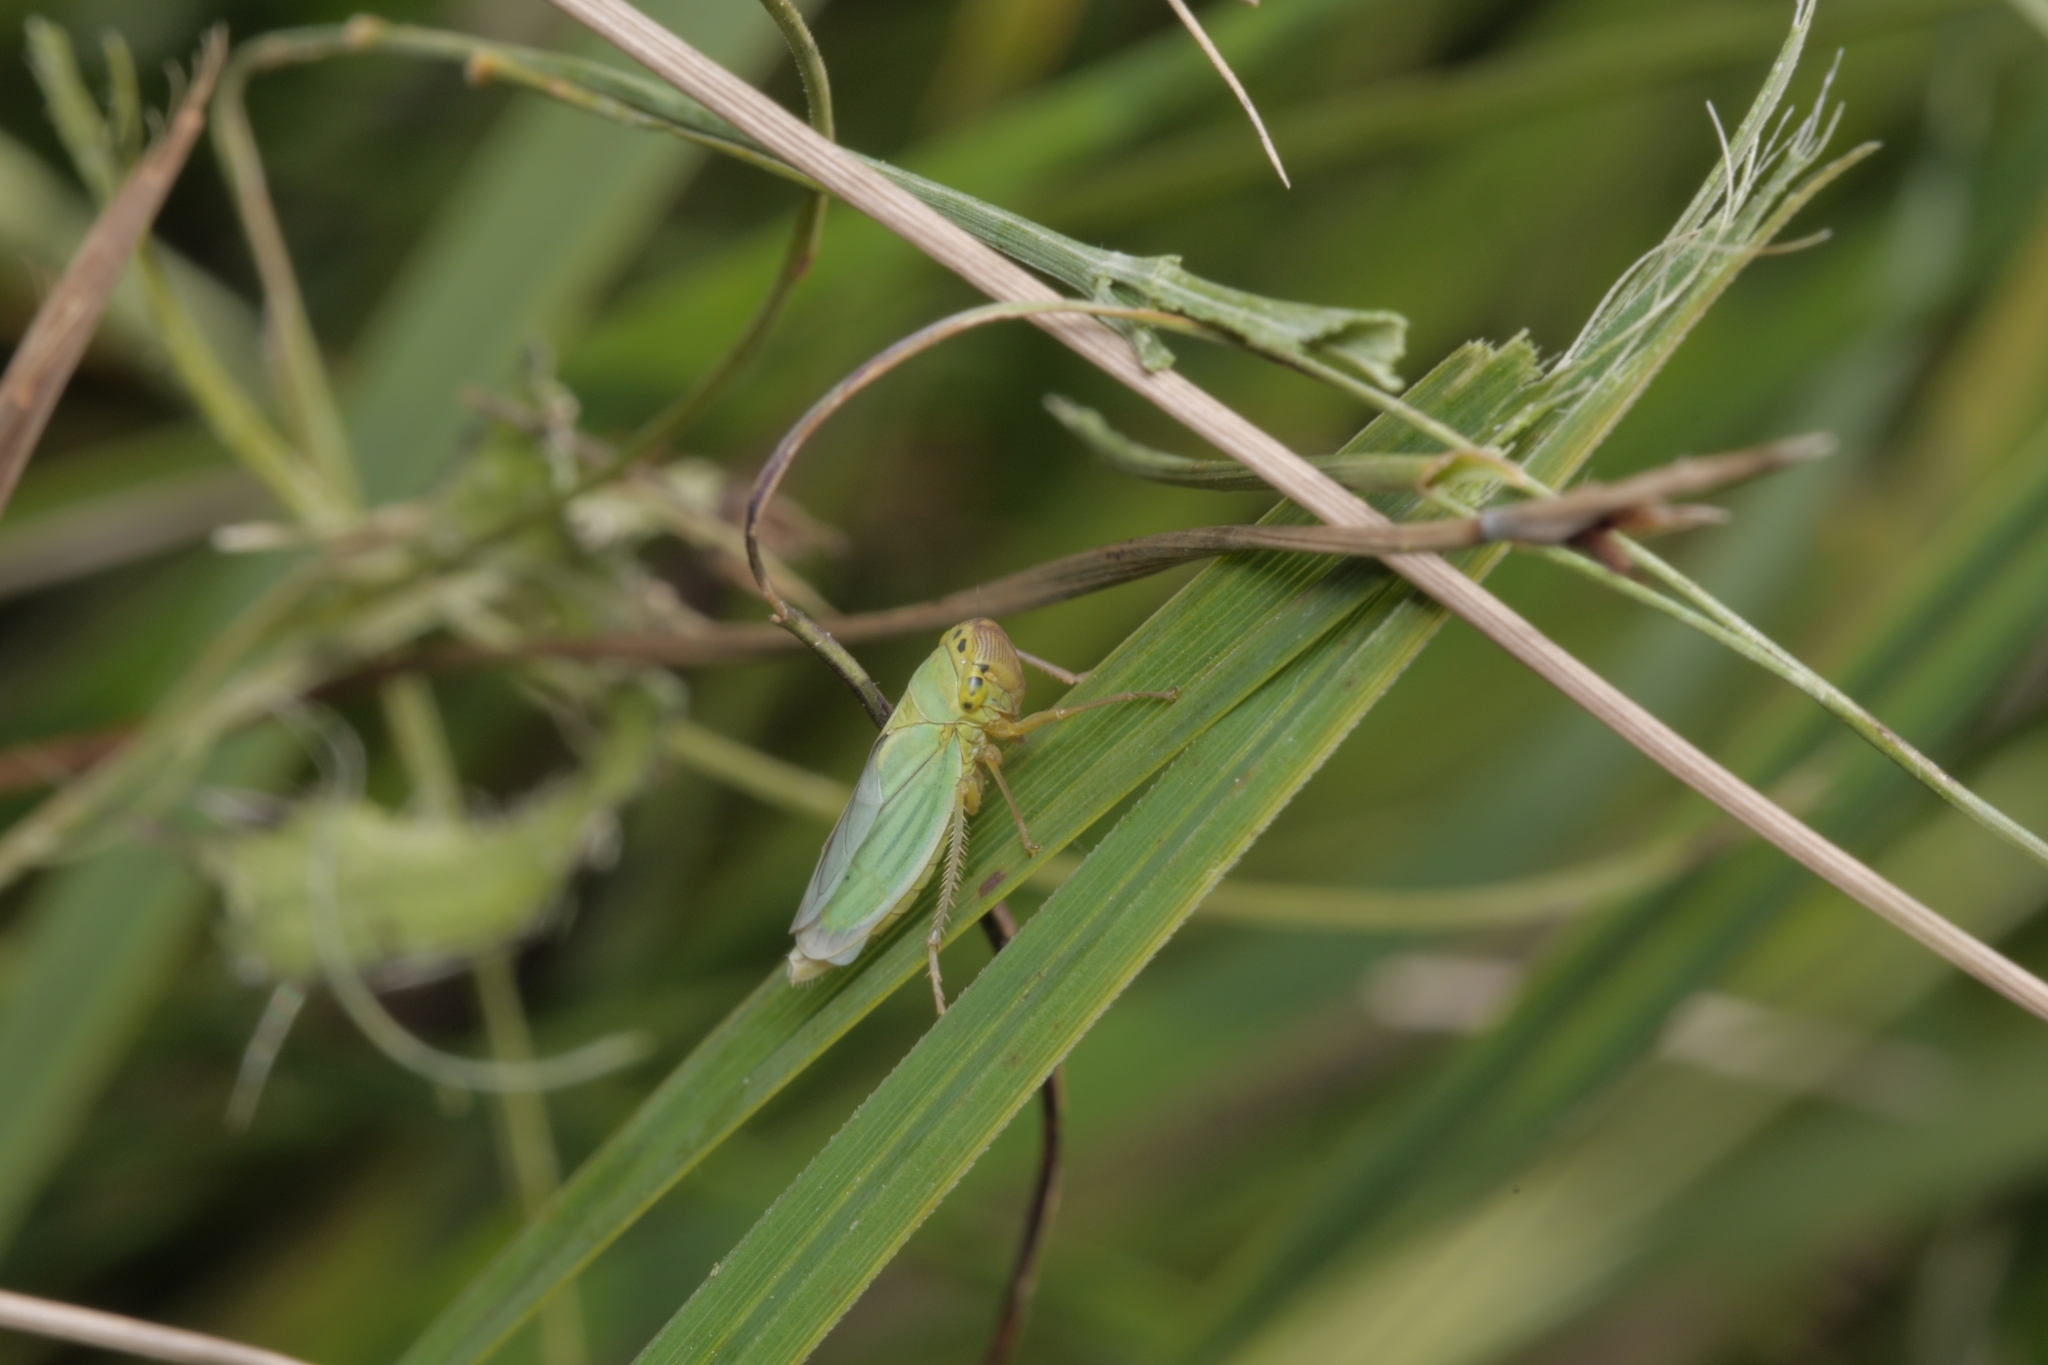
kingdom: Animalia
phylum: Arthropoda
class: Insecta
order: Hemiptera
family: Cicadellidae
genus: Cicadella
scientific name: Cicadella viridis
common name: Leafhopper
